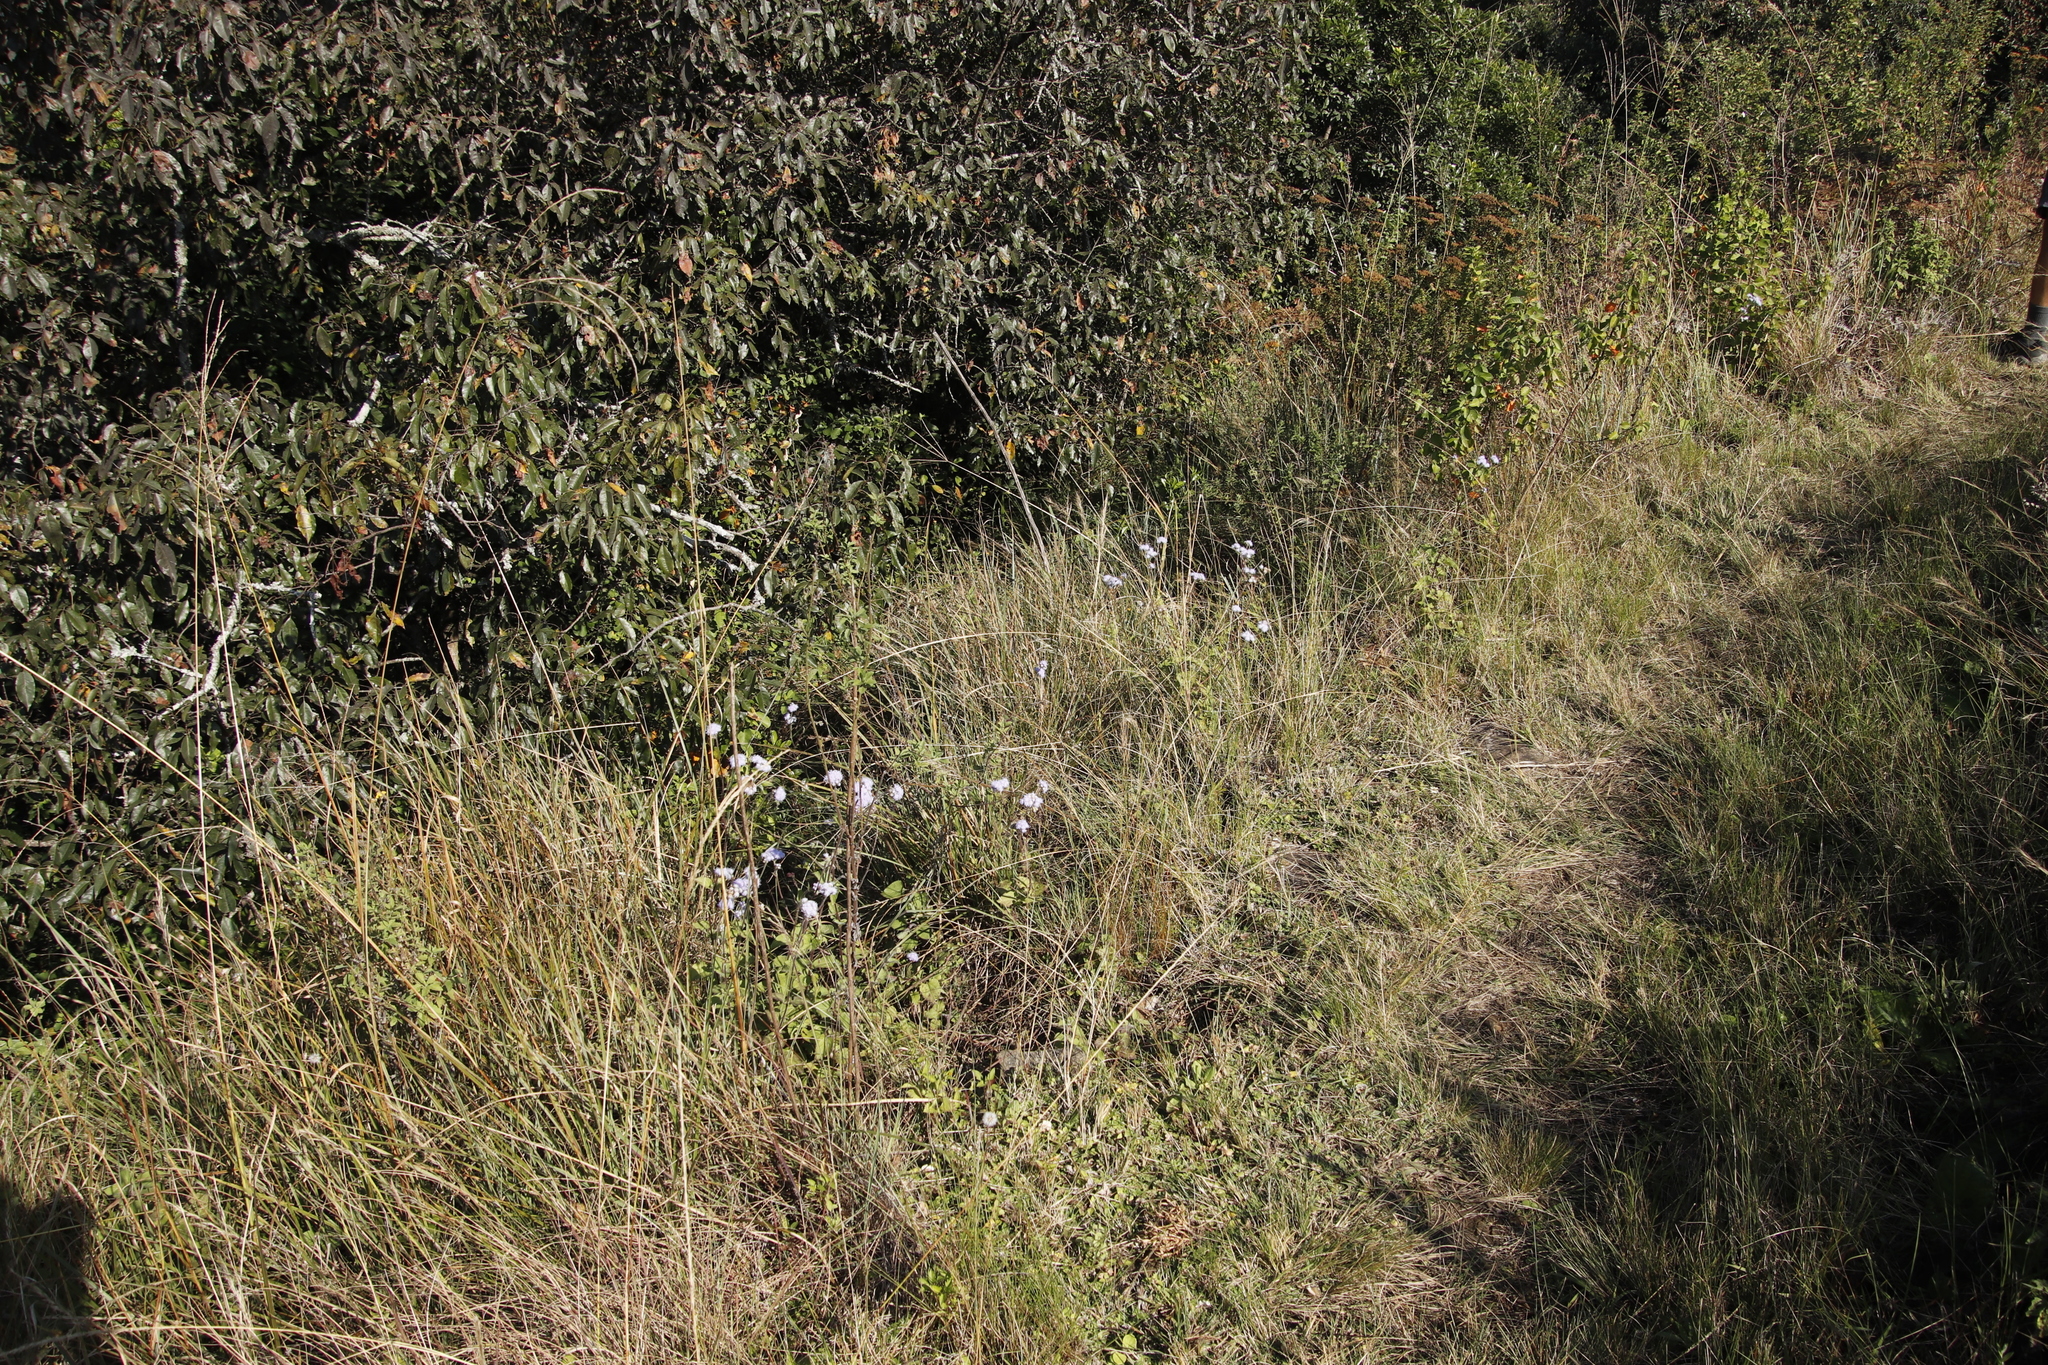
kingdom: Plantae
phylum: Tracheophyta
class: Magnoliopsida
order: Asterales
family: Asteraceae
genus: Ageratum
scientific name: Ageratum houstonianum
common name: Bluemink
